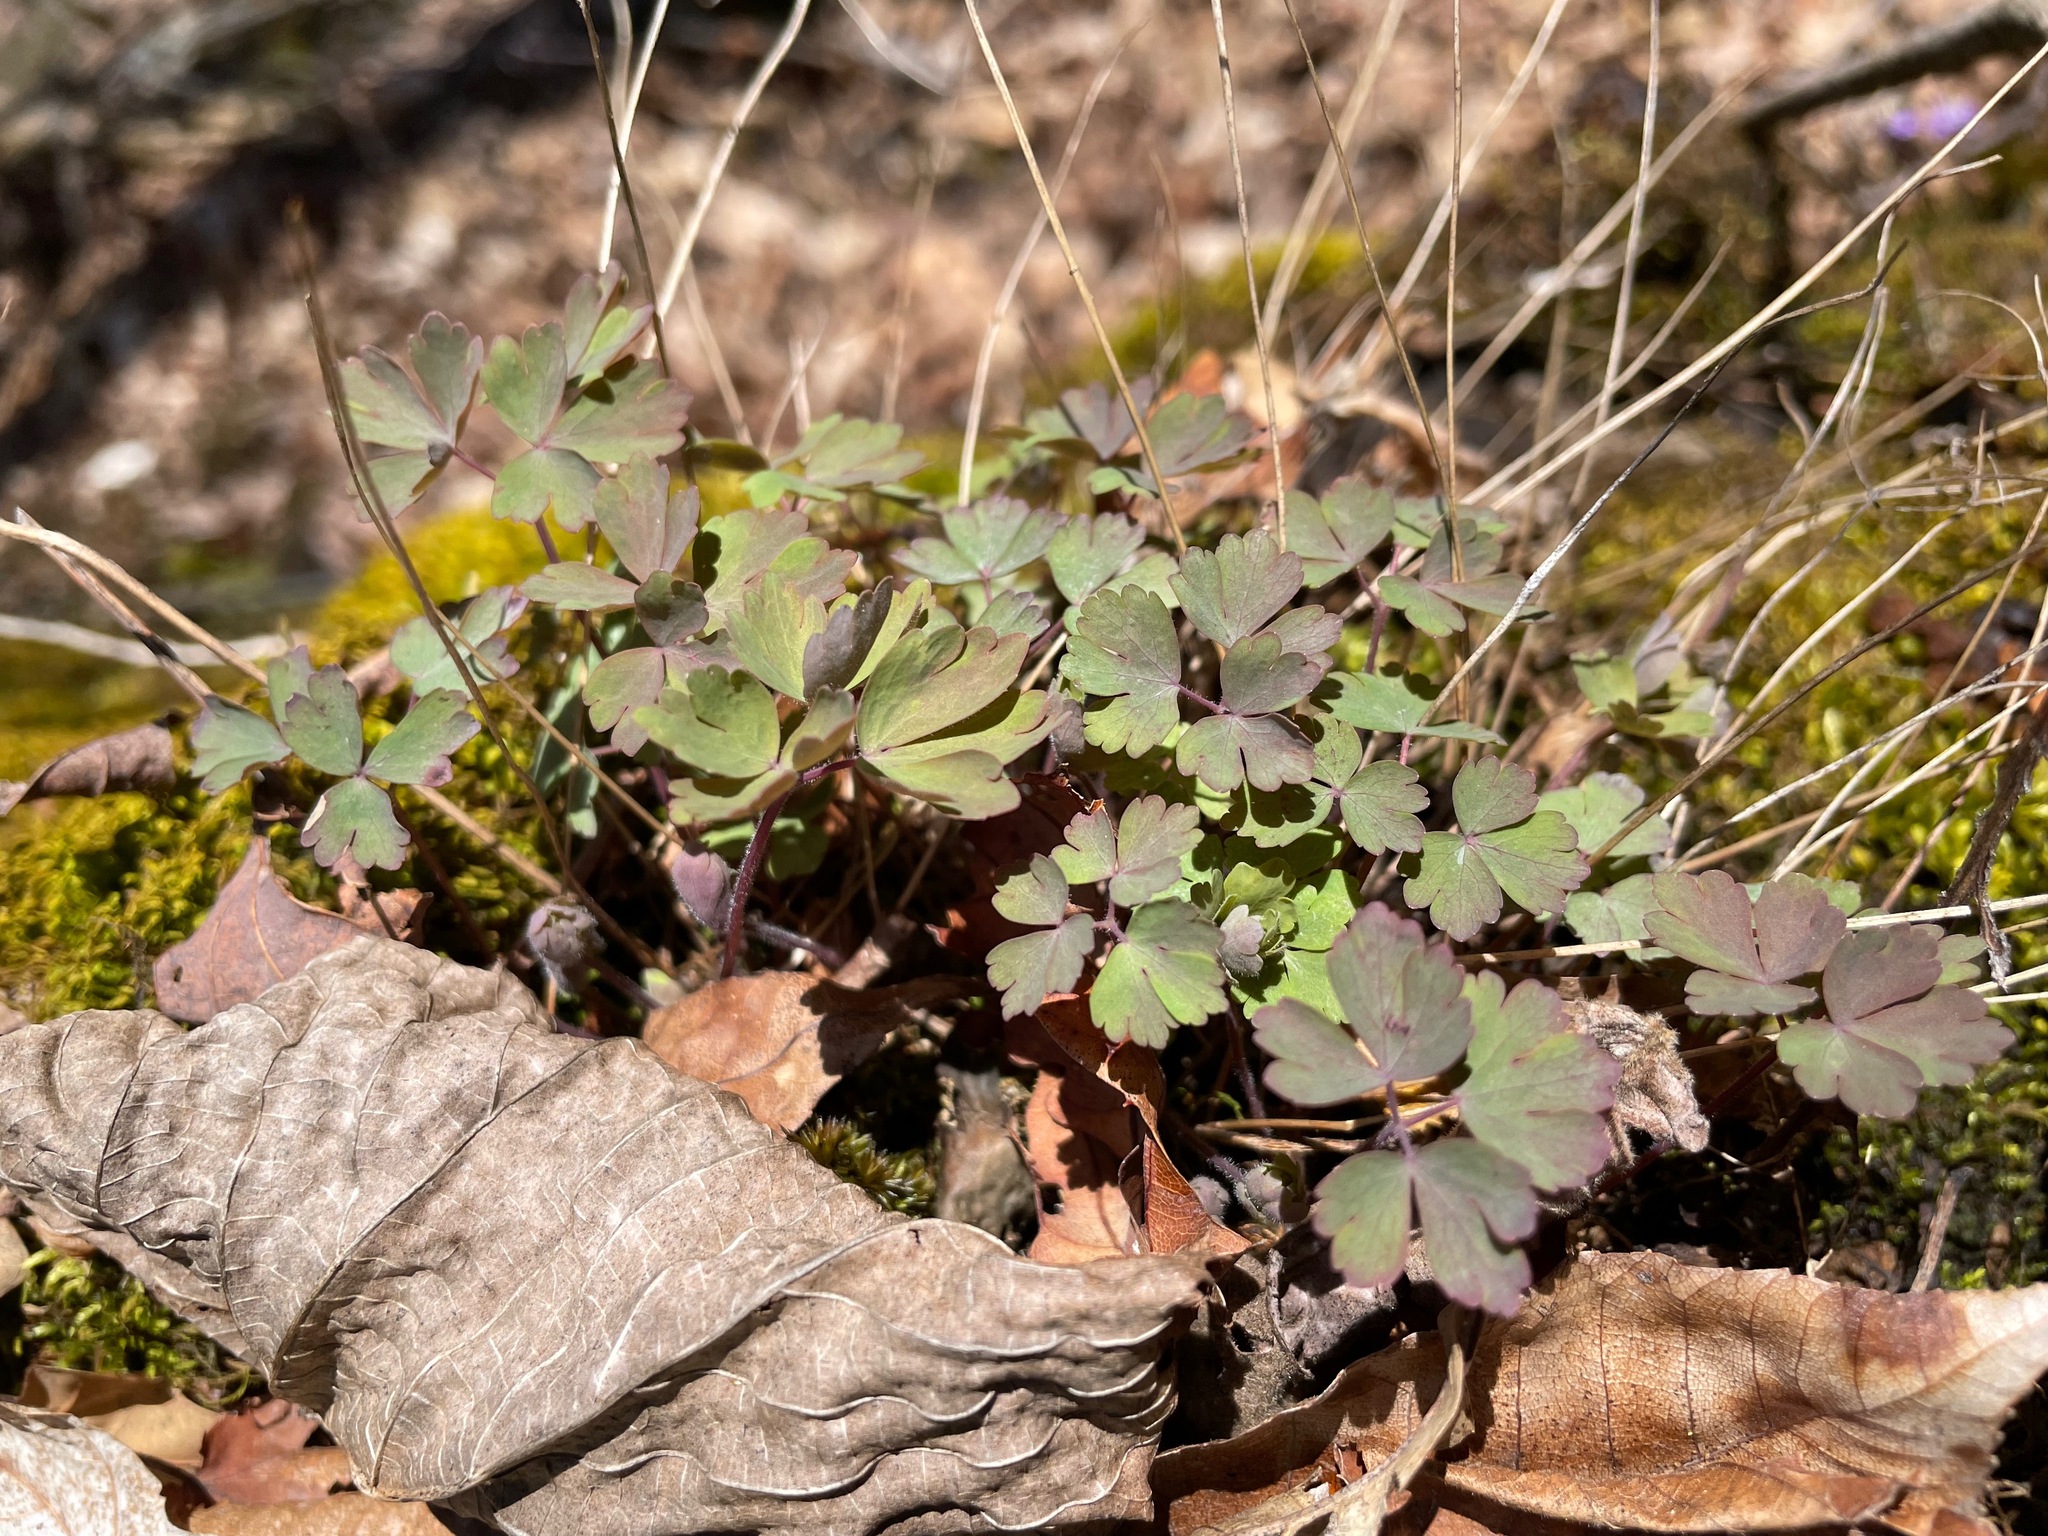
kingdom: Plantae
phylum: Tracheophyta
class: Magnoliopsida
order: Ranunculales
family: Ranunculaceae
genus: Aquilegia
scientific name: Aquilegia canadensis
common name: American columbine
